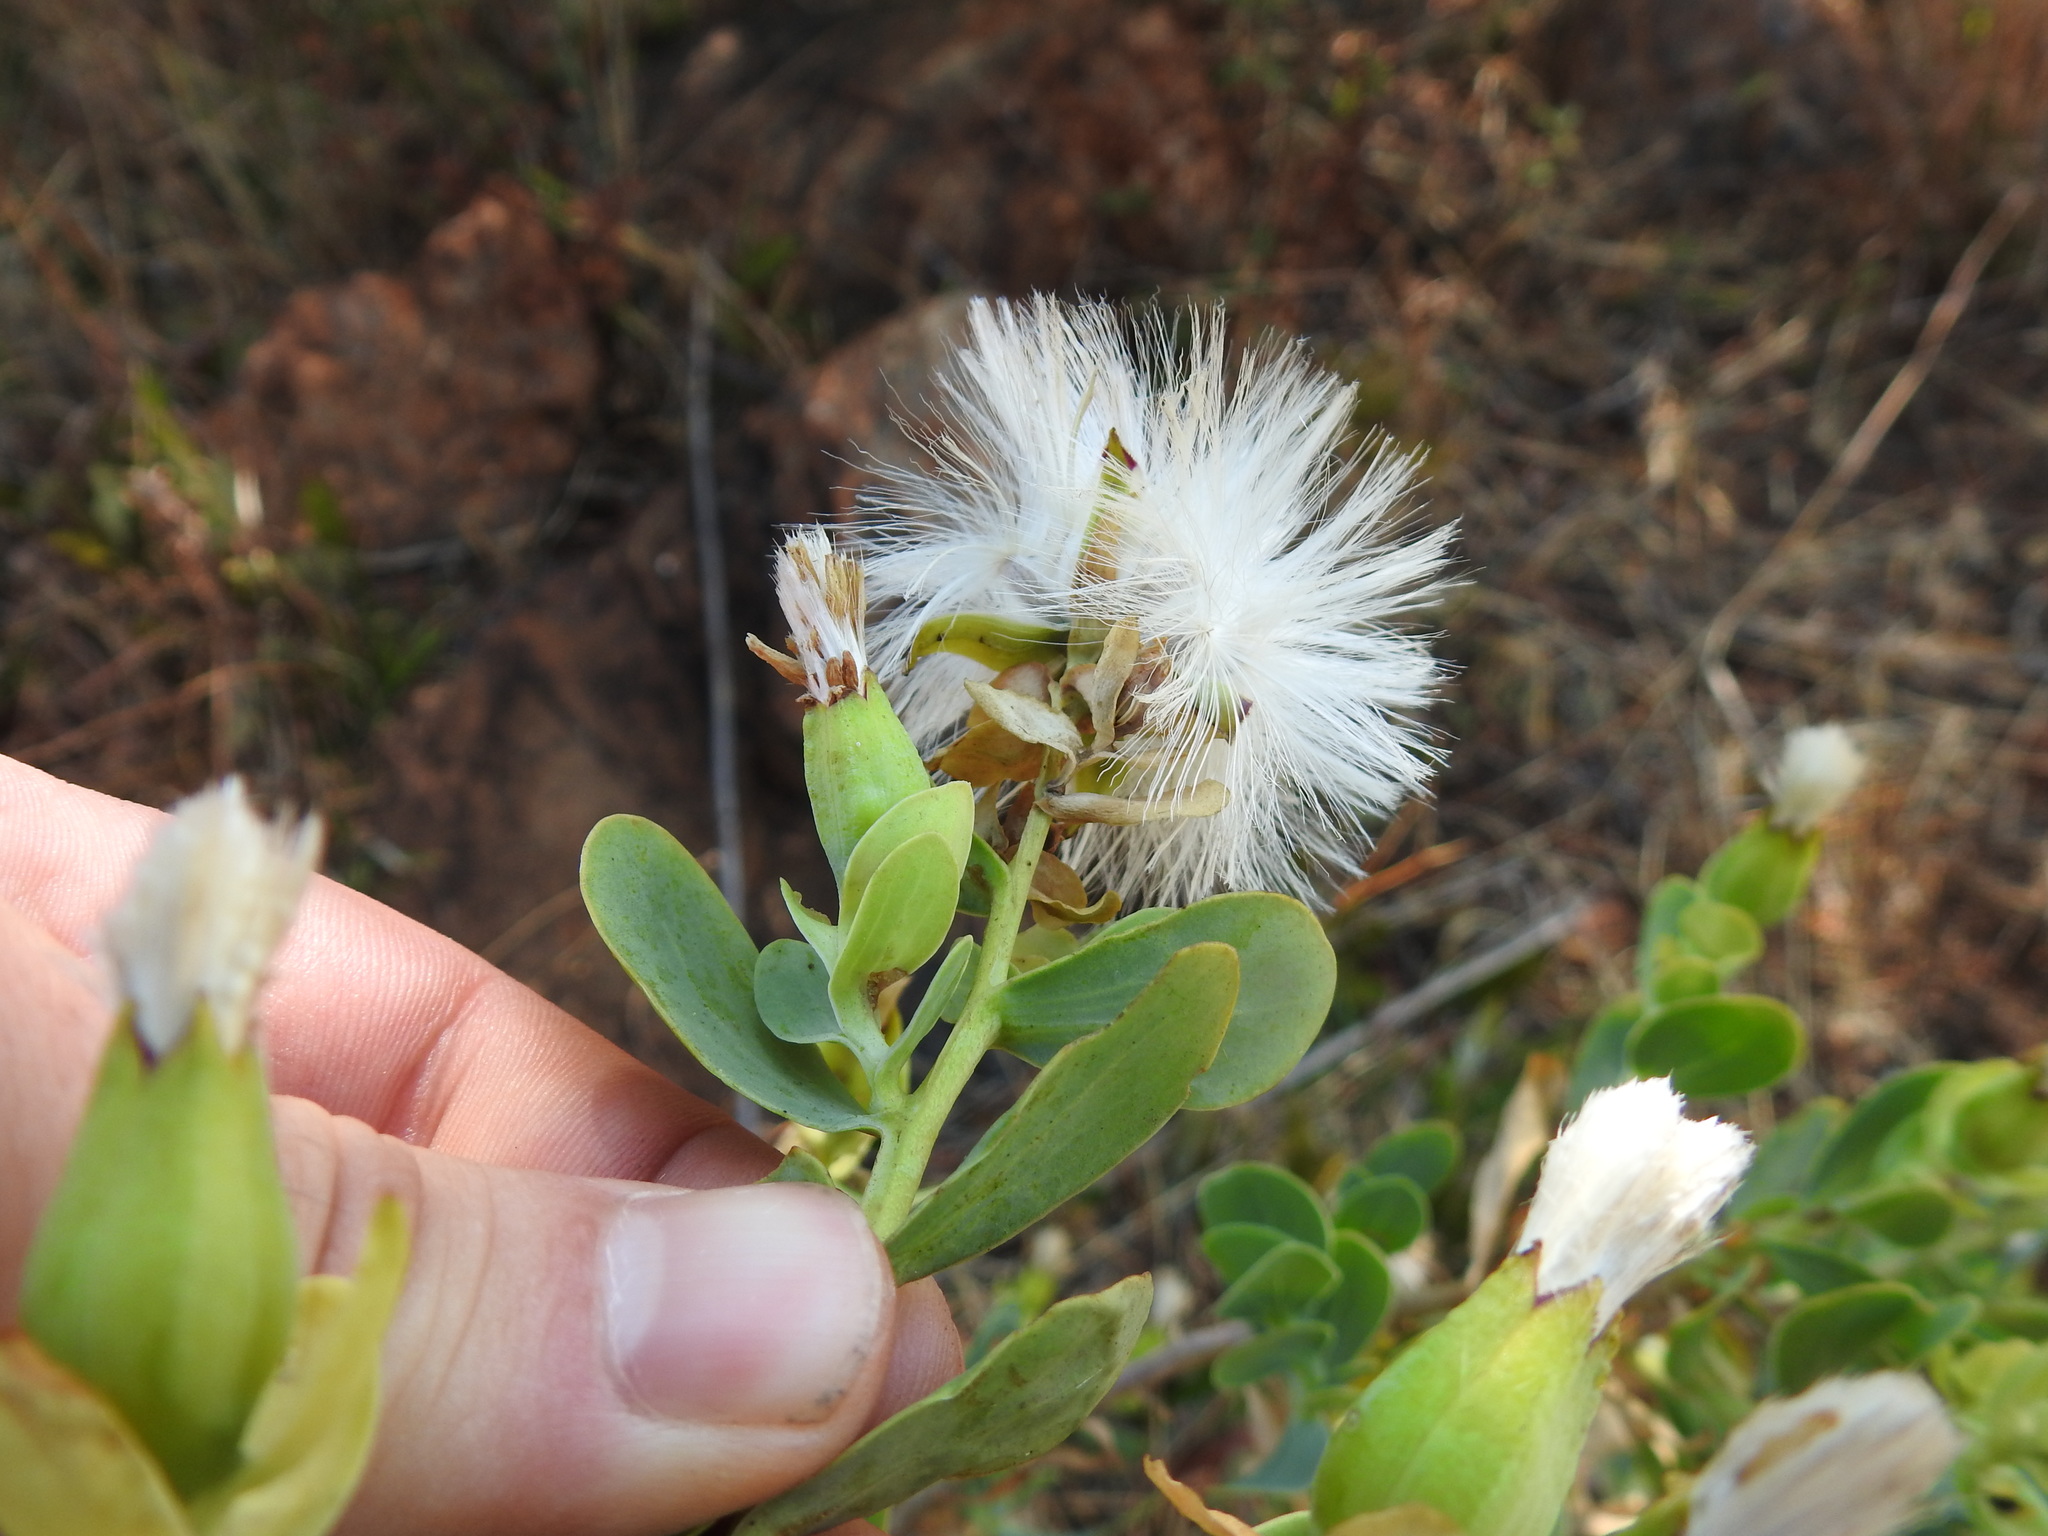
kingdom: Plantae
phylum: Tracheophyta
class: Magnoliopsida
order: Asterales
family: Asteraceae
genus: Lopholaena
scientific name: Lopholaena coriifolia
